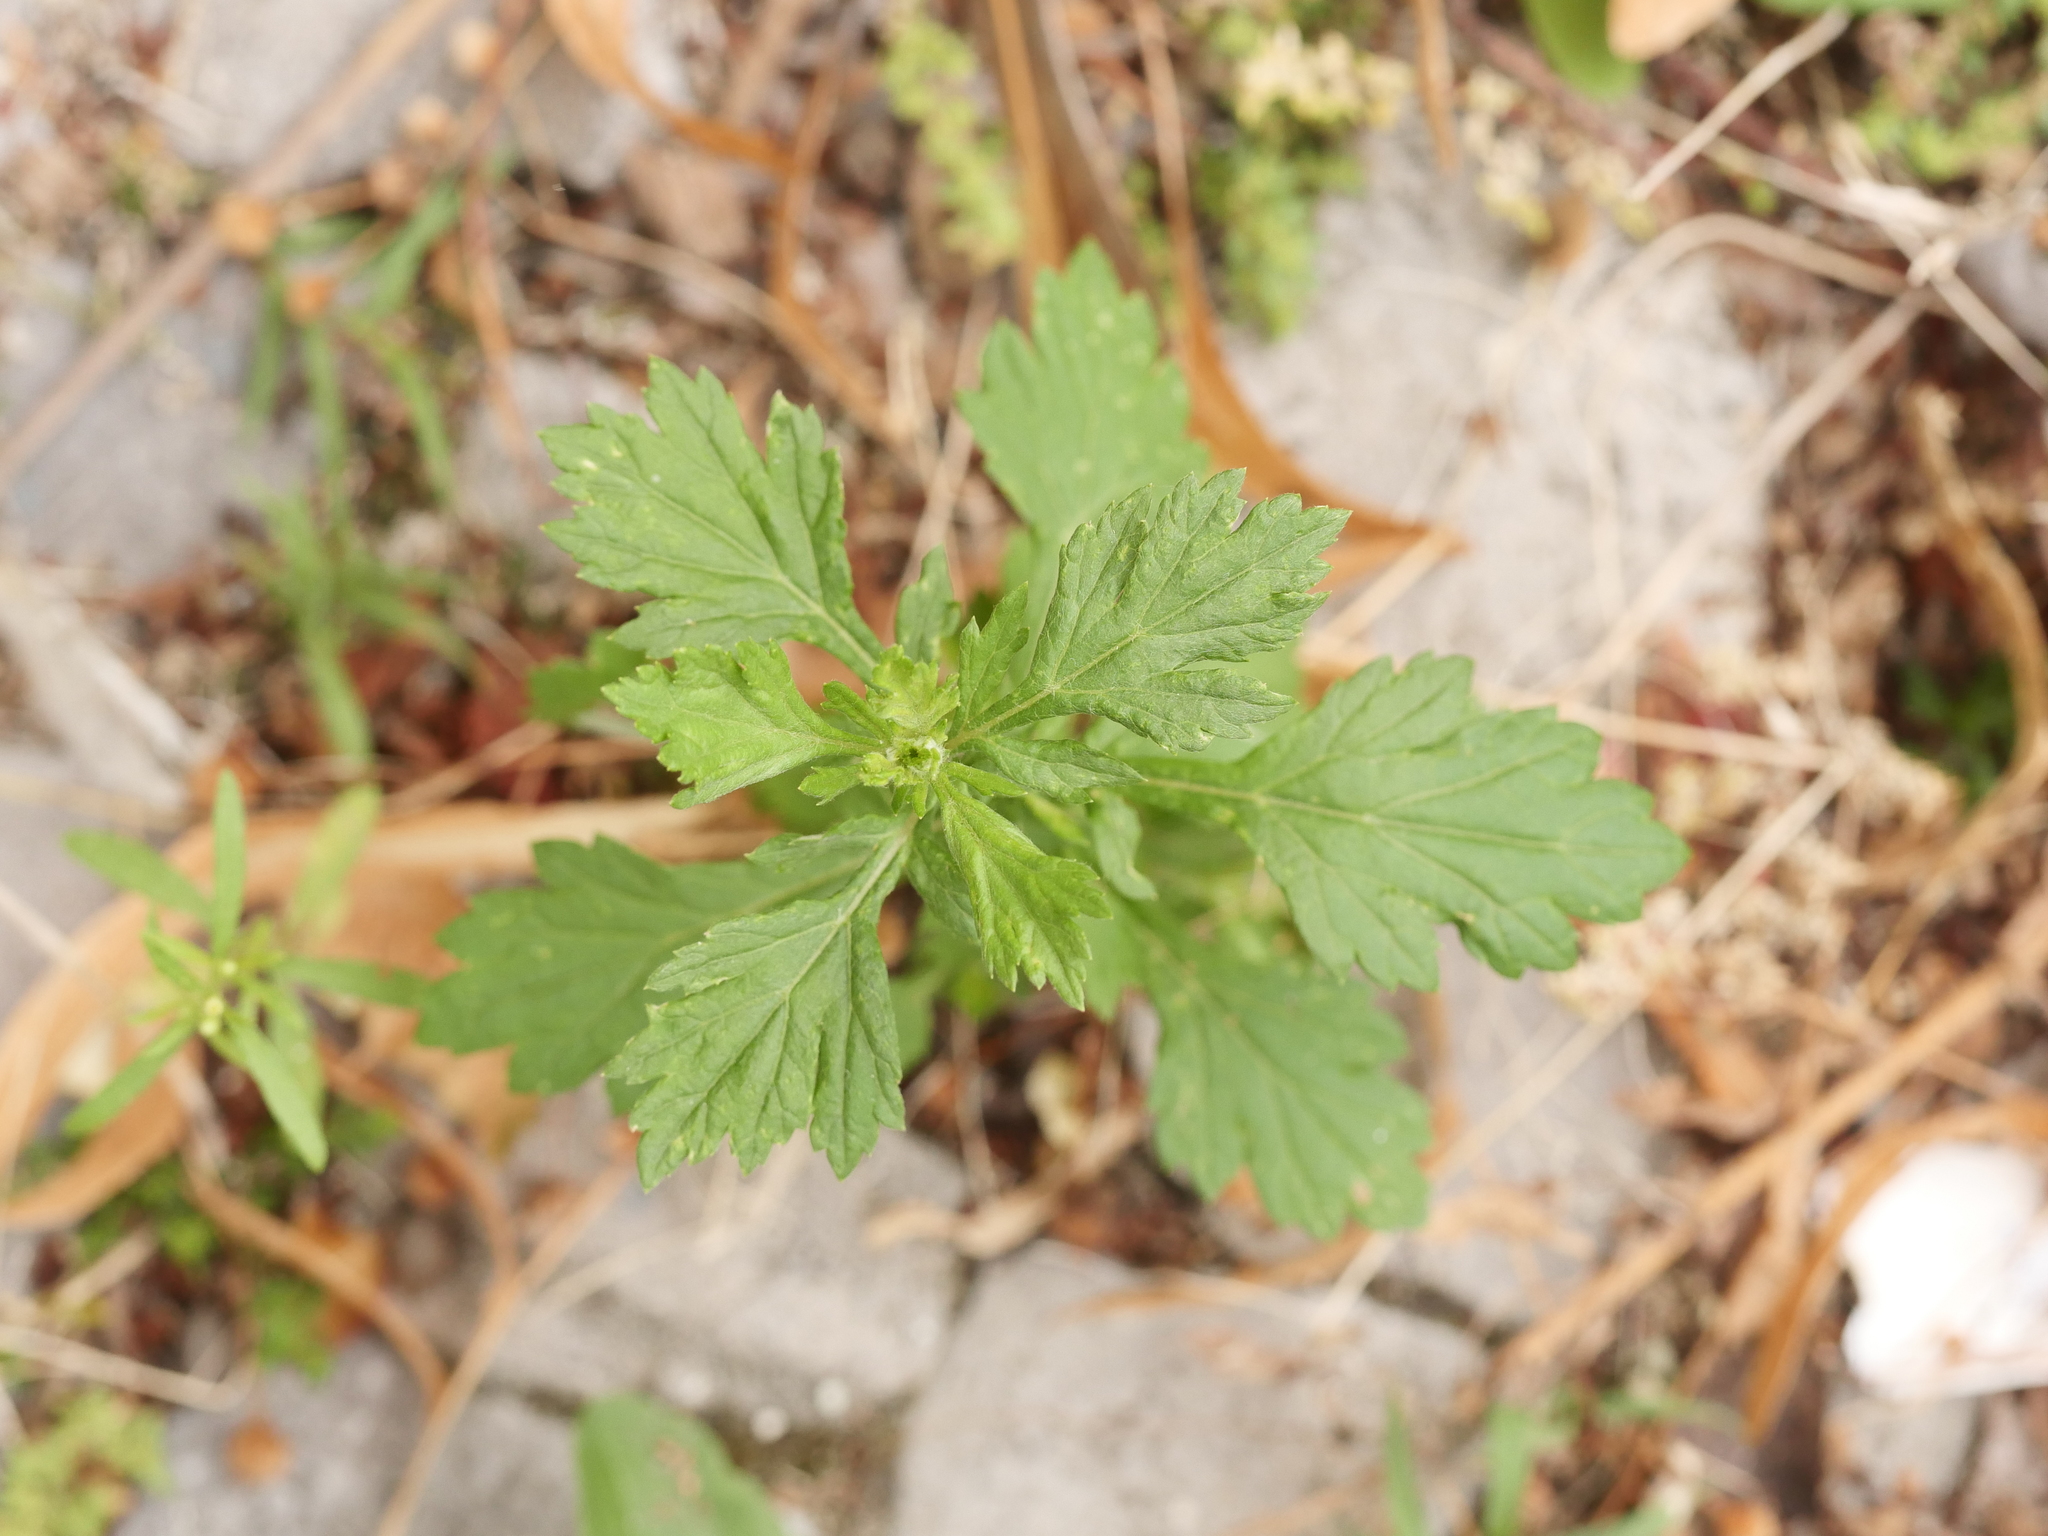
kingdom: Plantae
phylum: Tracheophyta
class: Magnoliopsida
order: Asterales
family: Asteraceae
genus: Artemisia
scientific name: Artemisia vulgaris
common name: Mugwort
